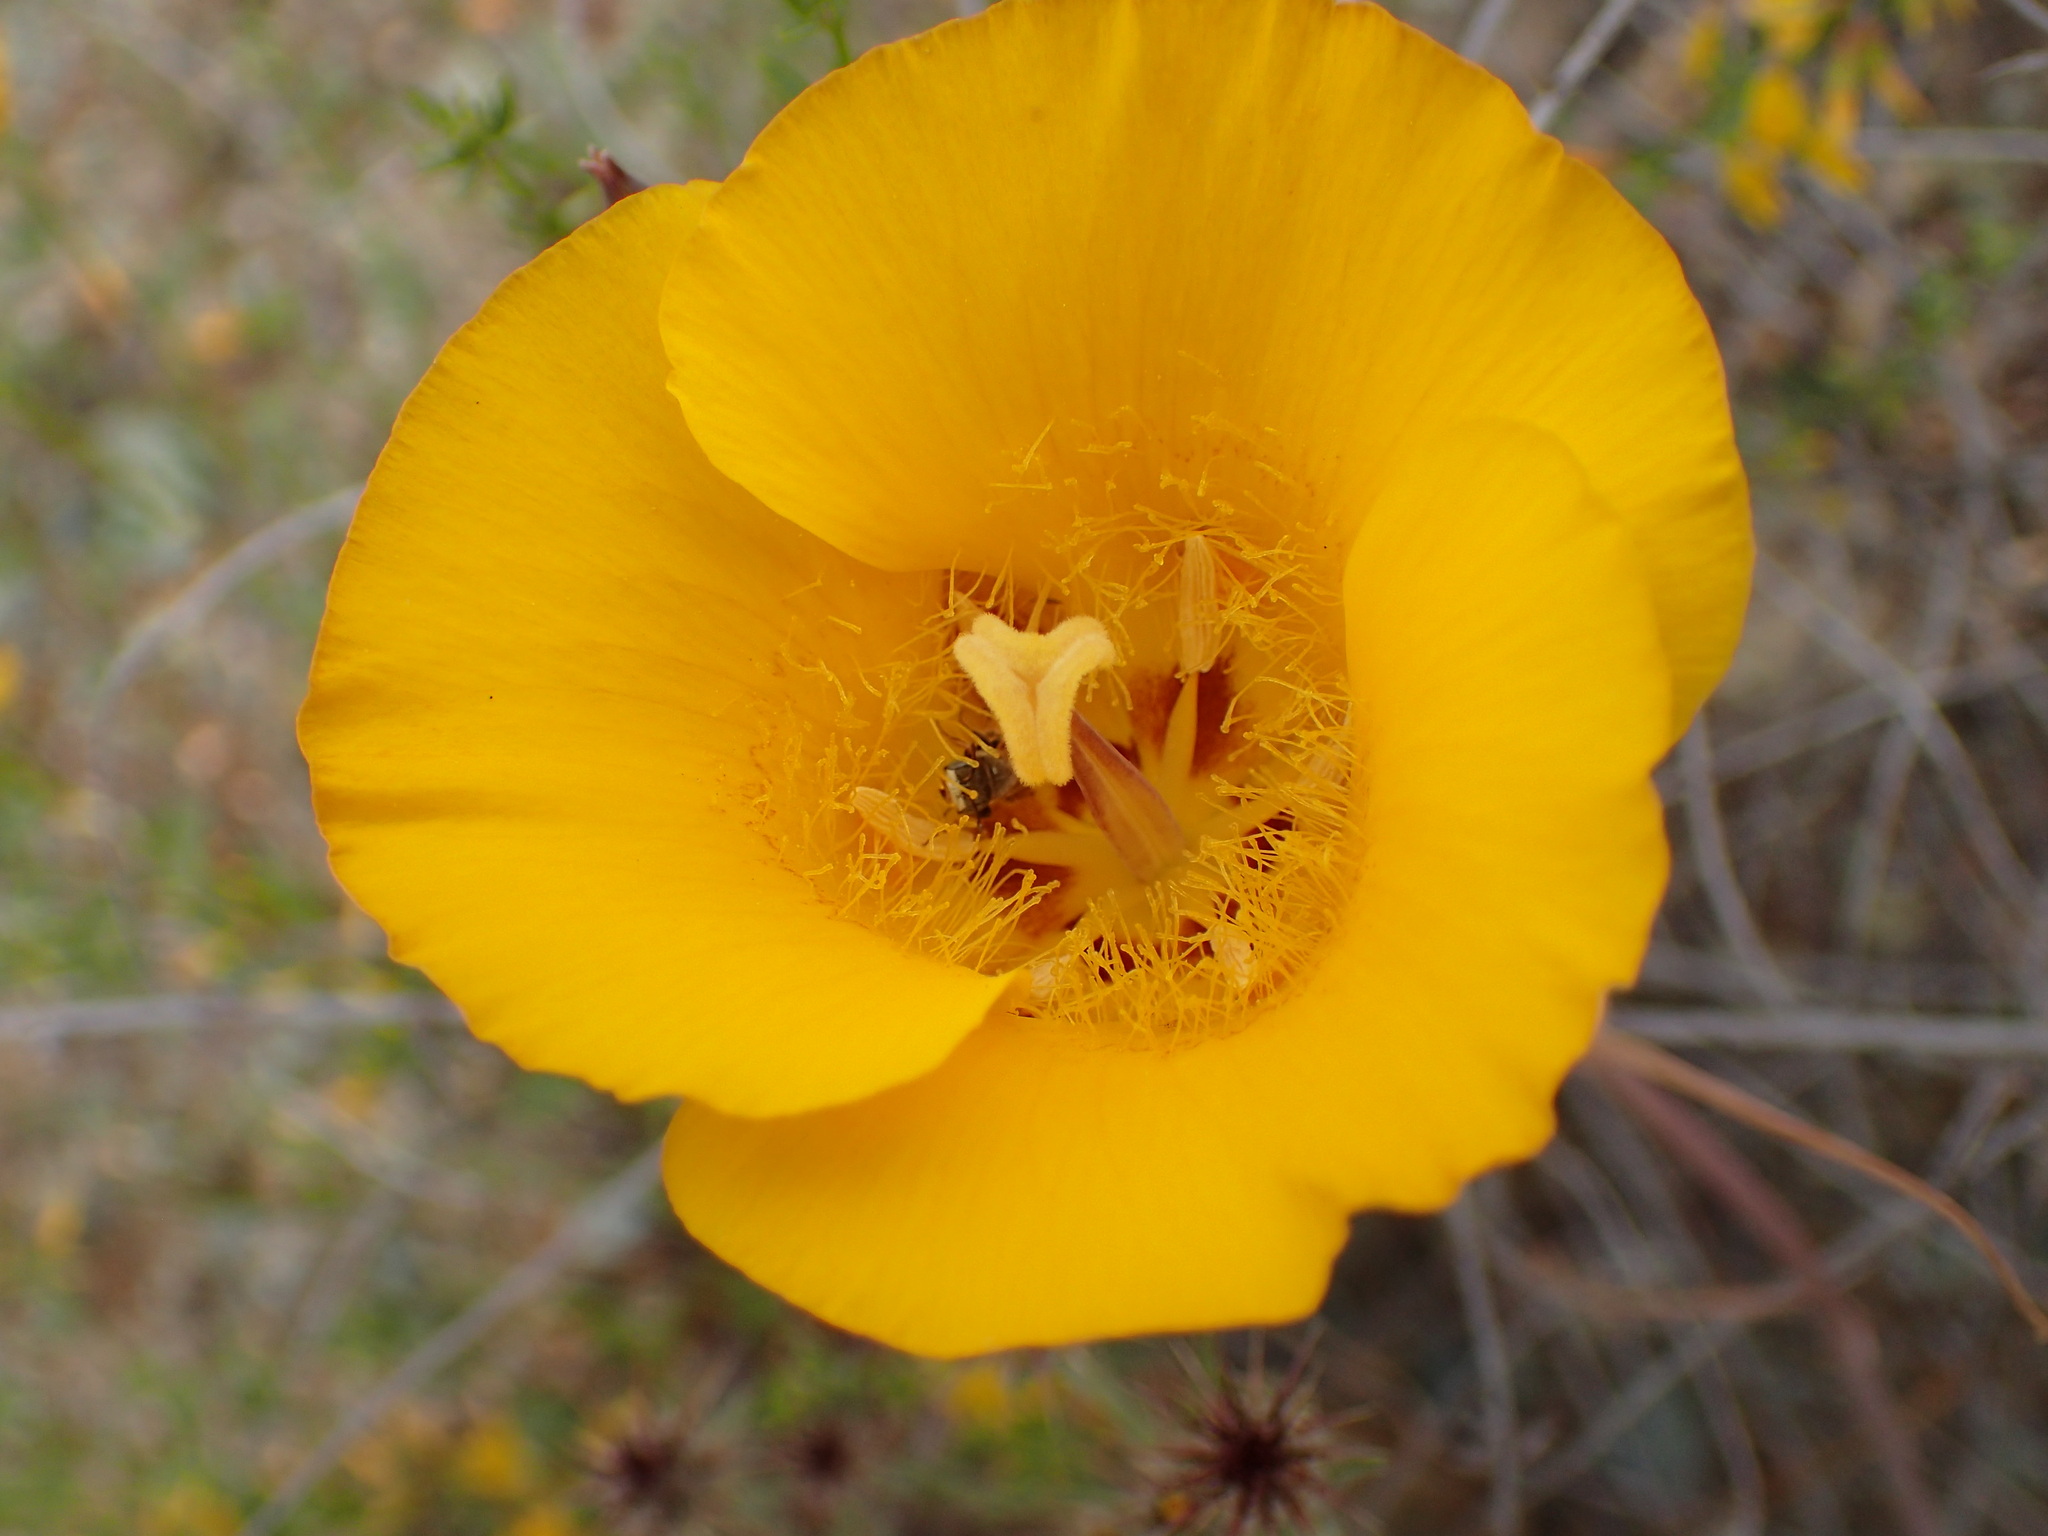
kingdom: Plantae
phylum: Tracheophyta
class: Liliopsida
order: Liliales
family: Liliaceae
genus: Calochortus
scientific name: Calochortus clavatus
